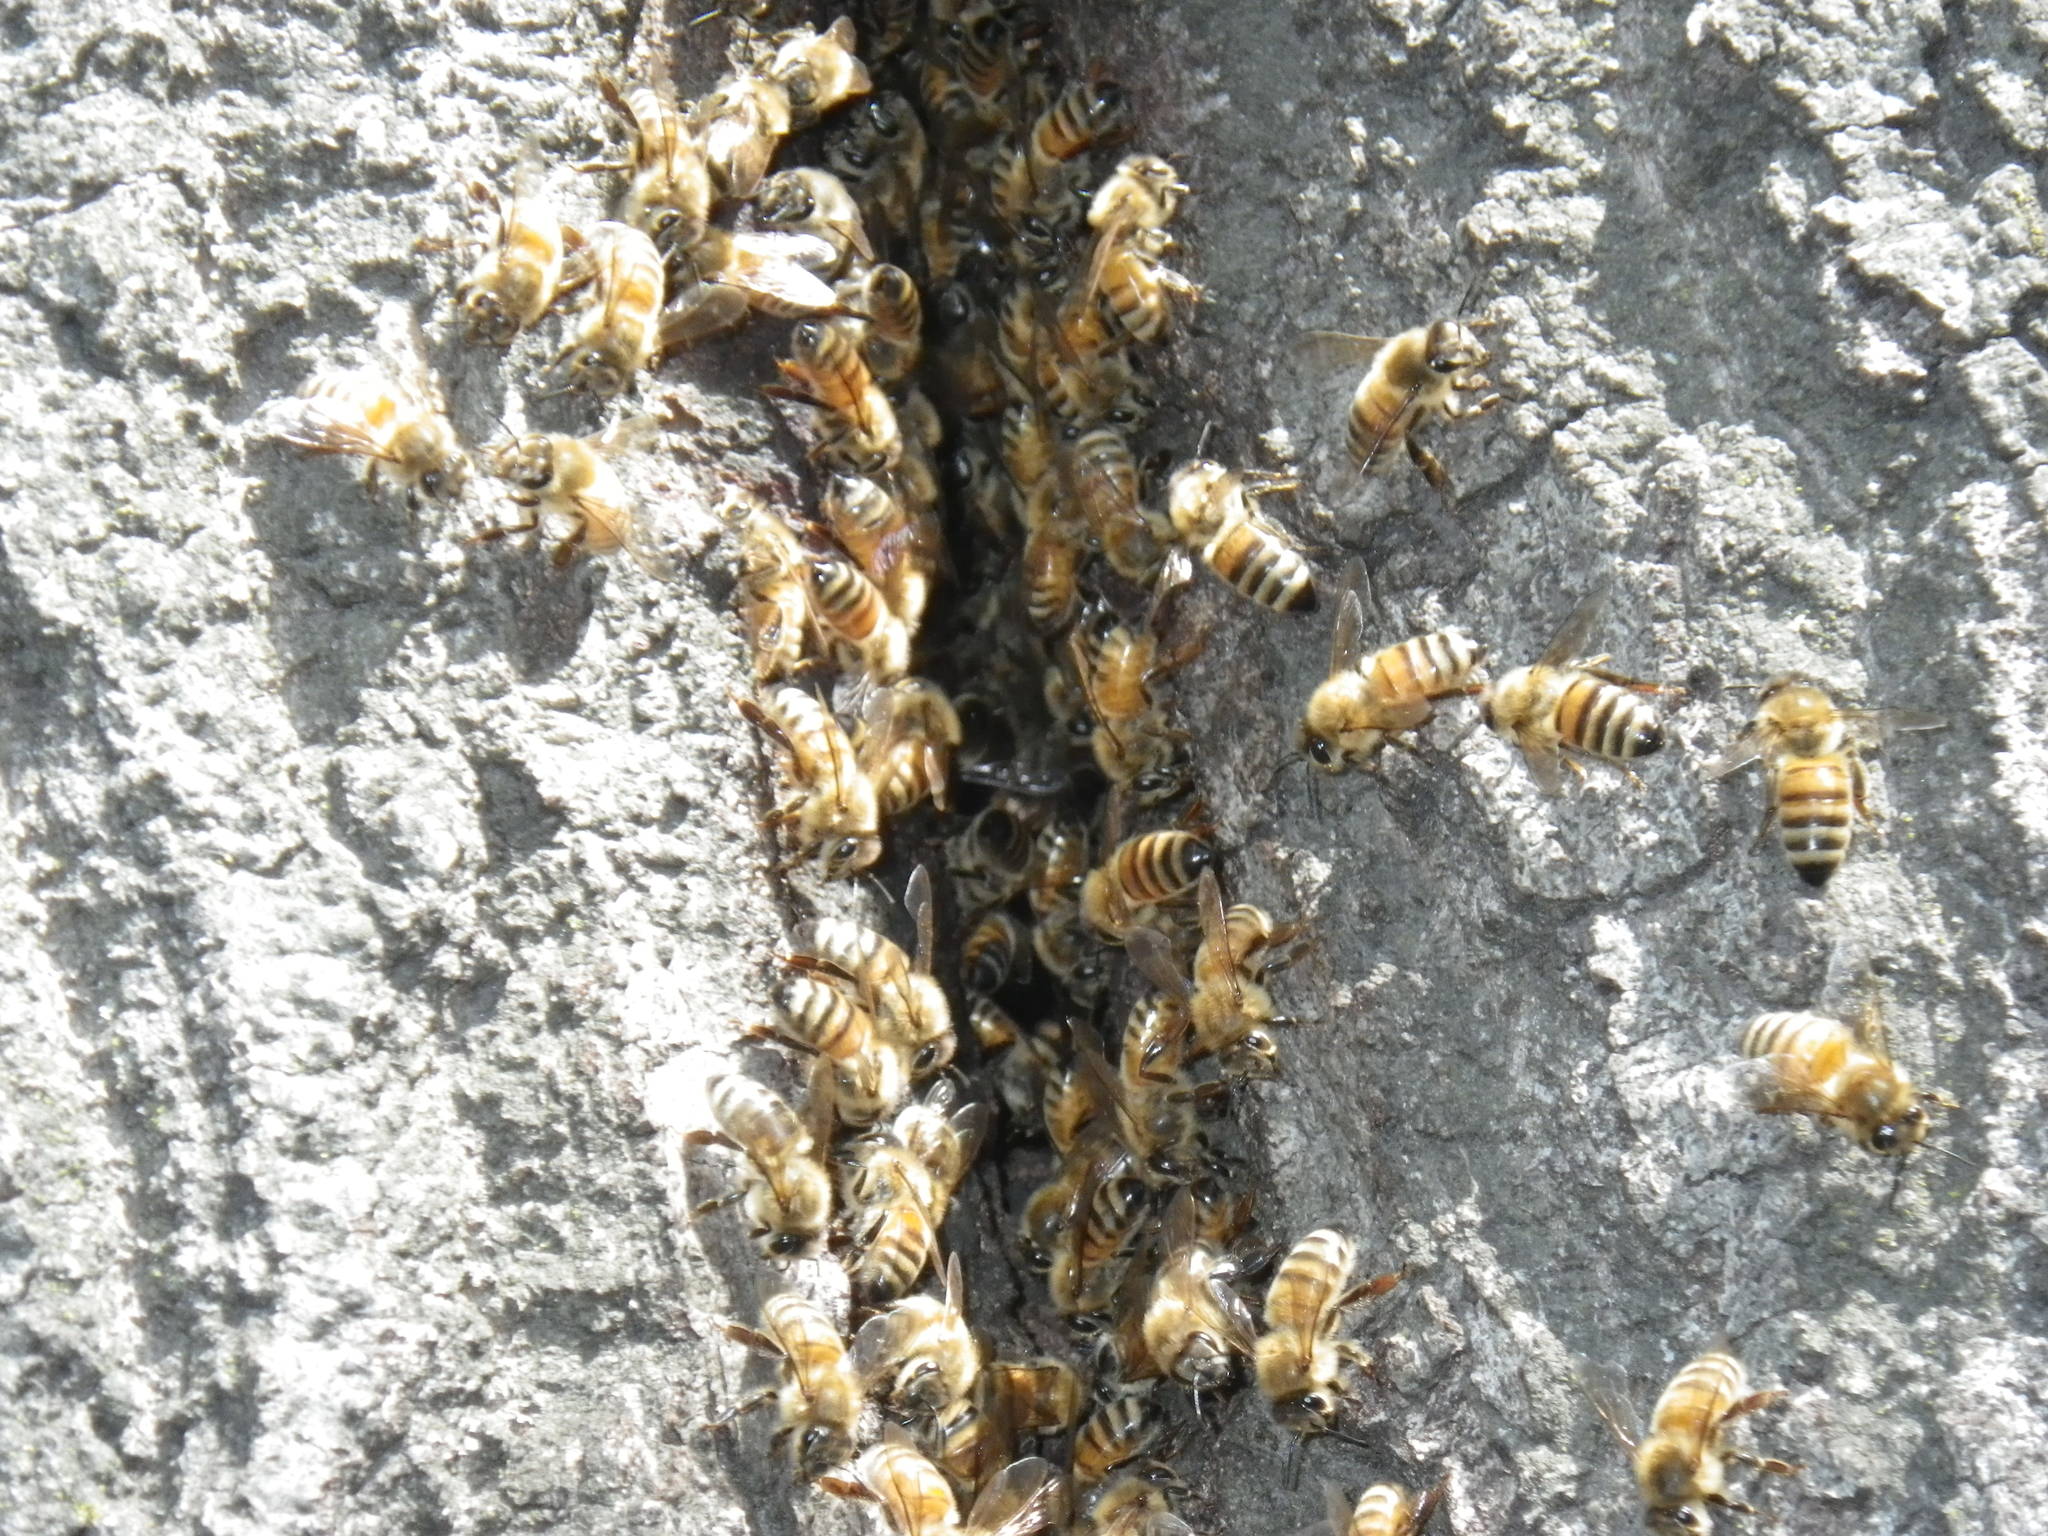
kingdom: Animalia
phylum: Arthropoda
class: Insecta
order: Hymenoptera
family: Apidae
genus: Apis
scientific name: Apis mellifera
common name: Honey bee
